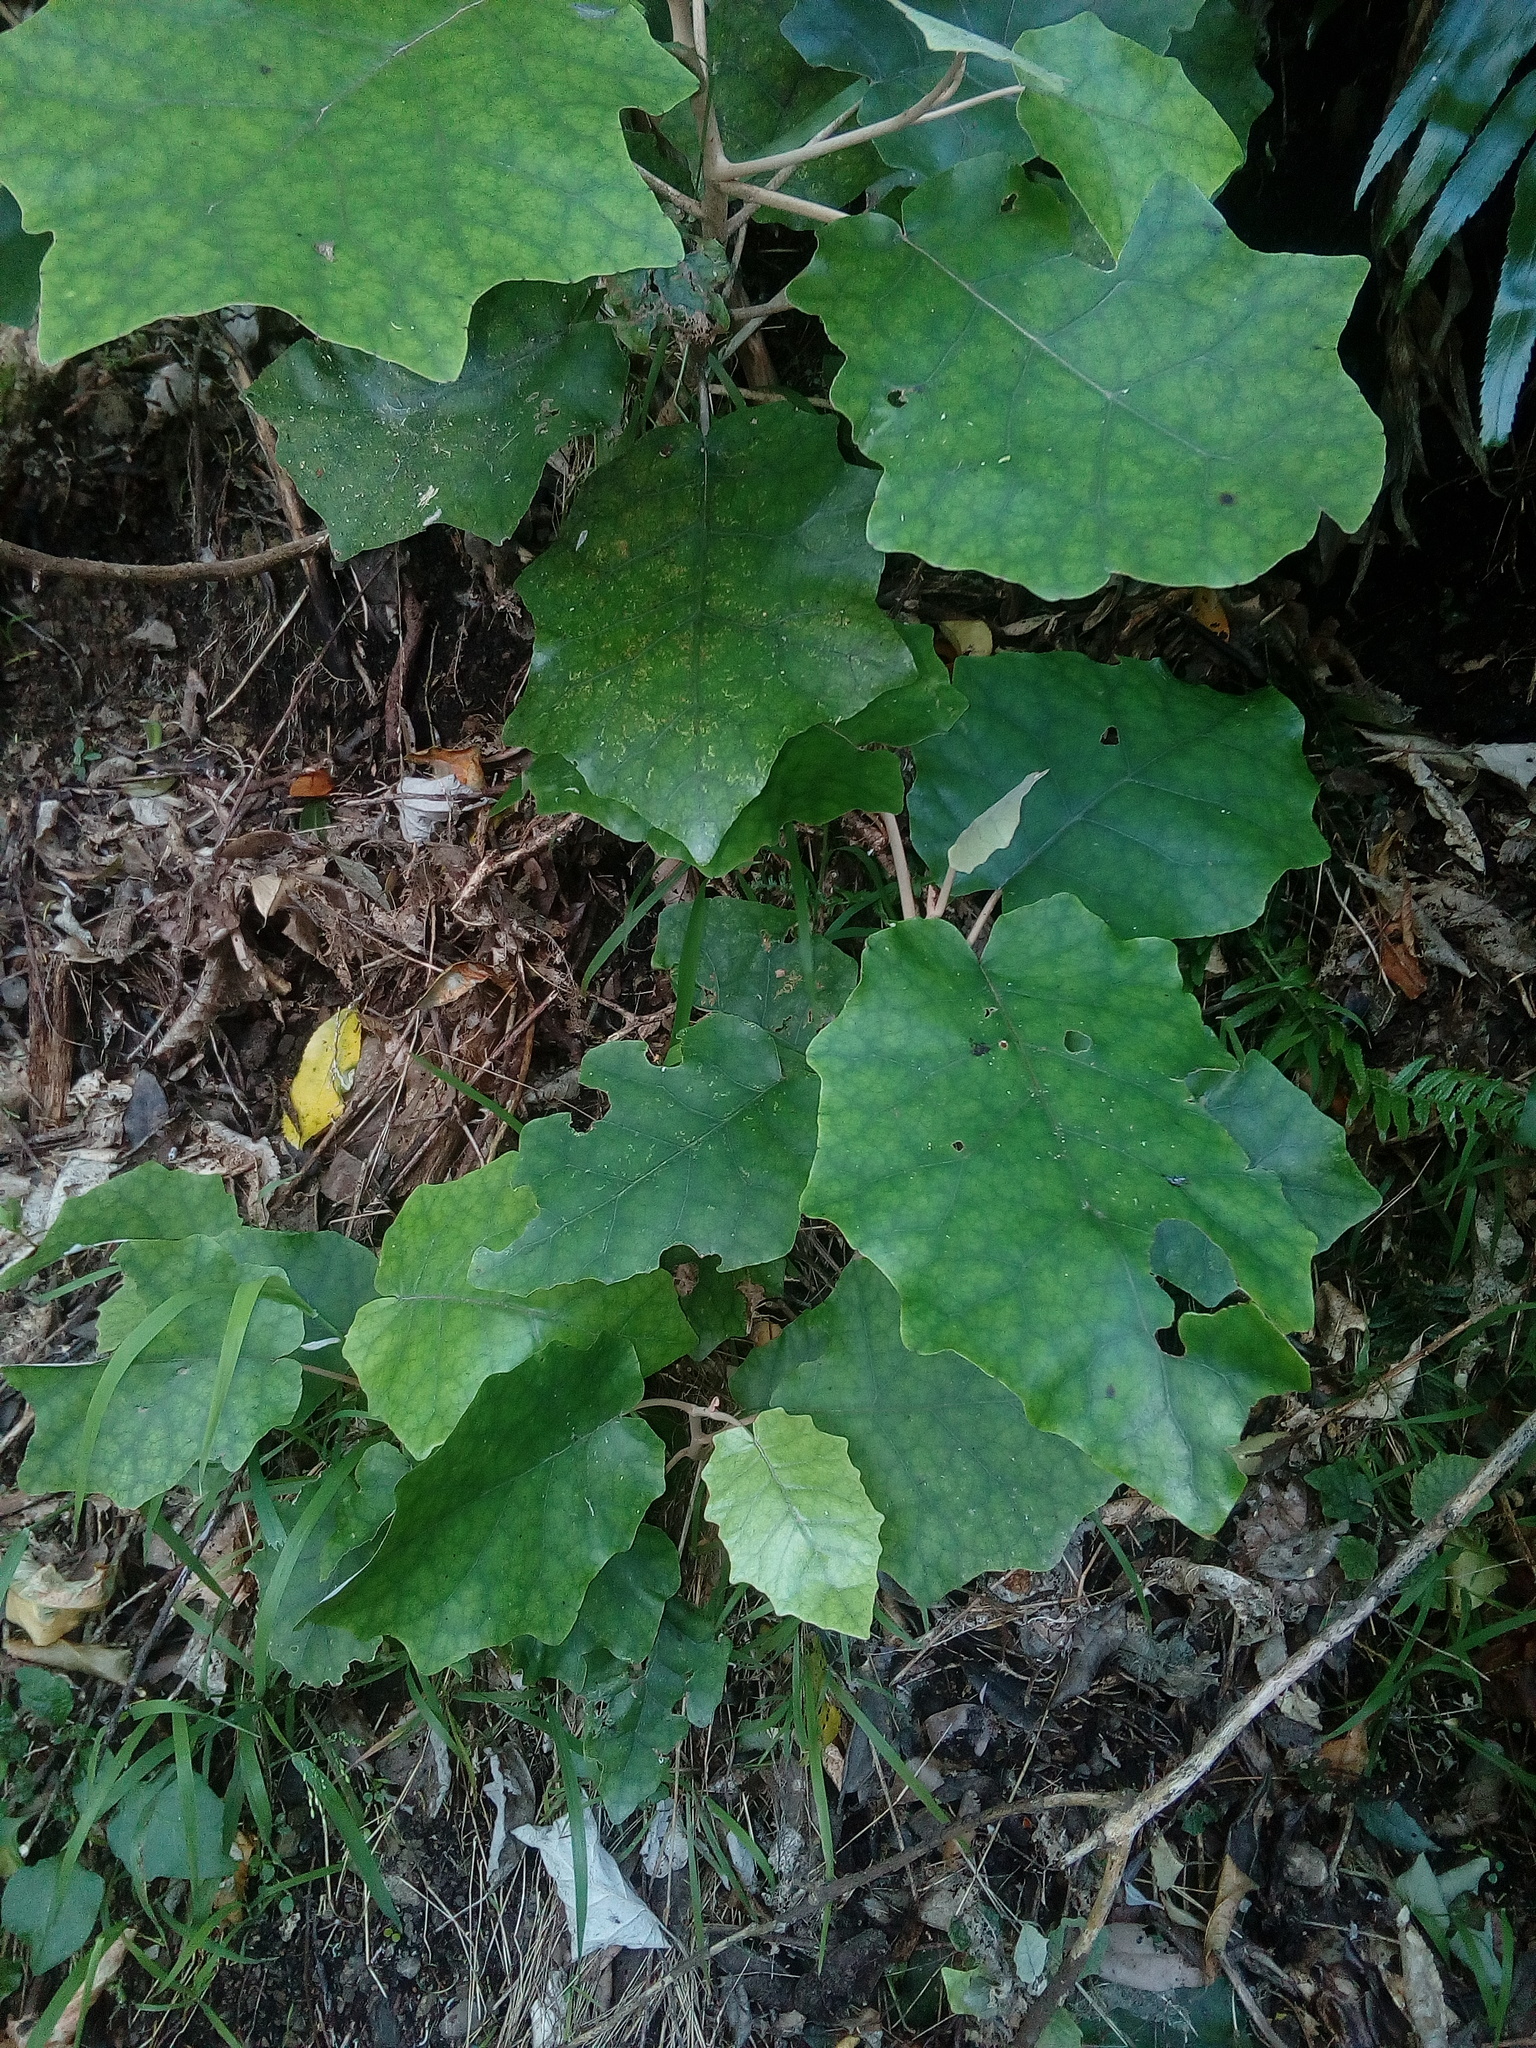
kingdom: Plantae
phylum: Tracheophyta
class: Magnoliopsida
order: Asterales
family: Asteraceae
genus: Brachyglottis
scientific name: Brachyglottis repanda
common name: Hedge ragwort
